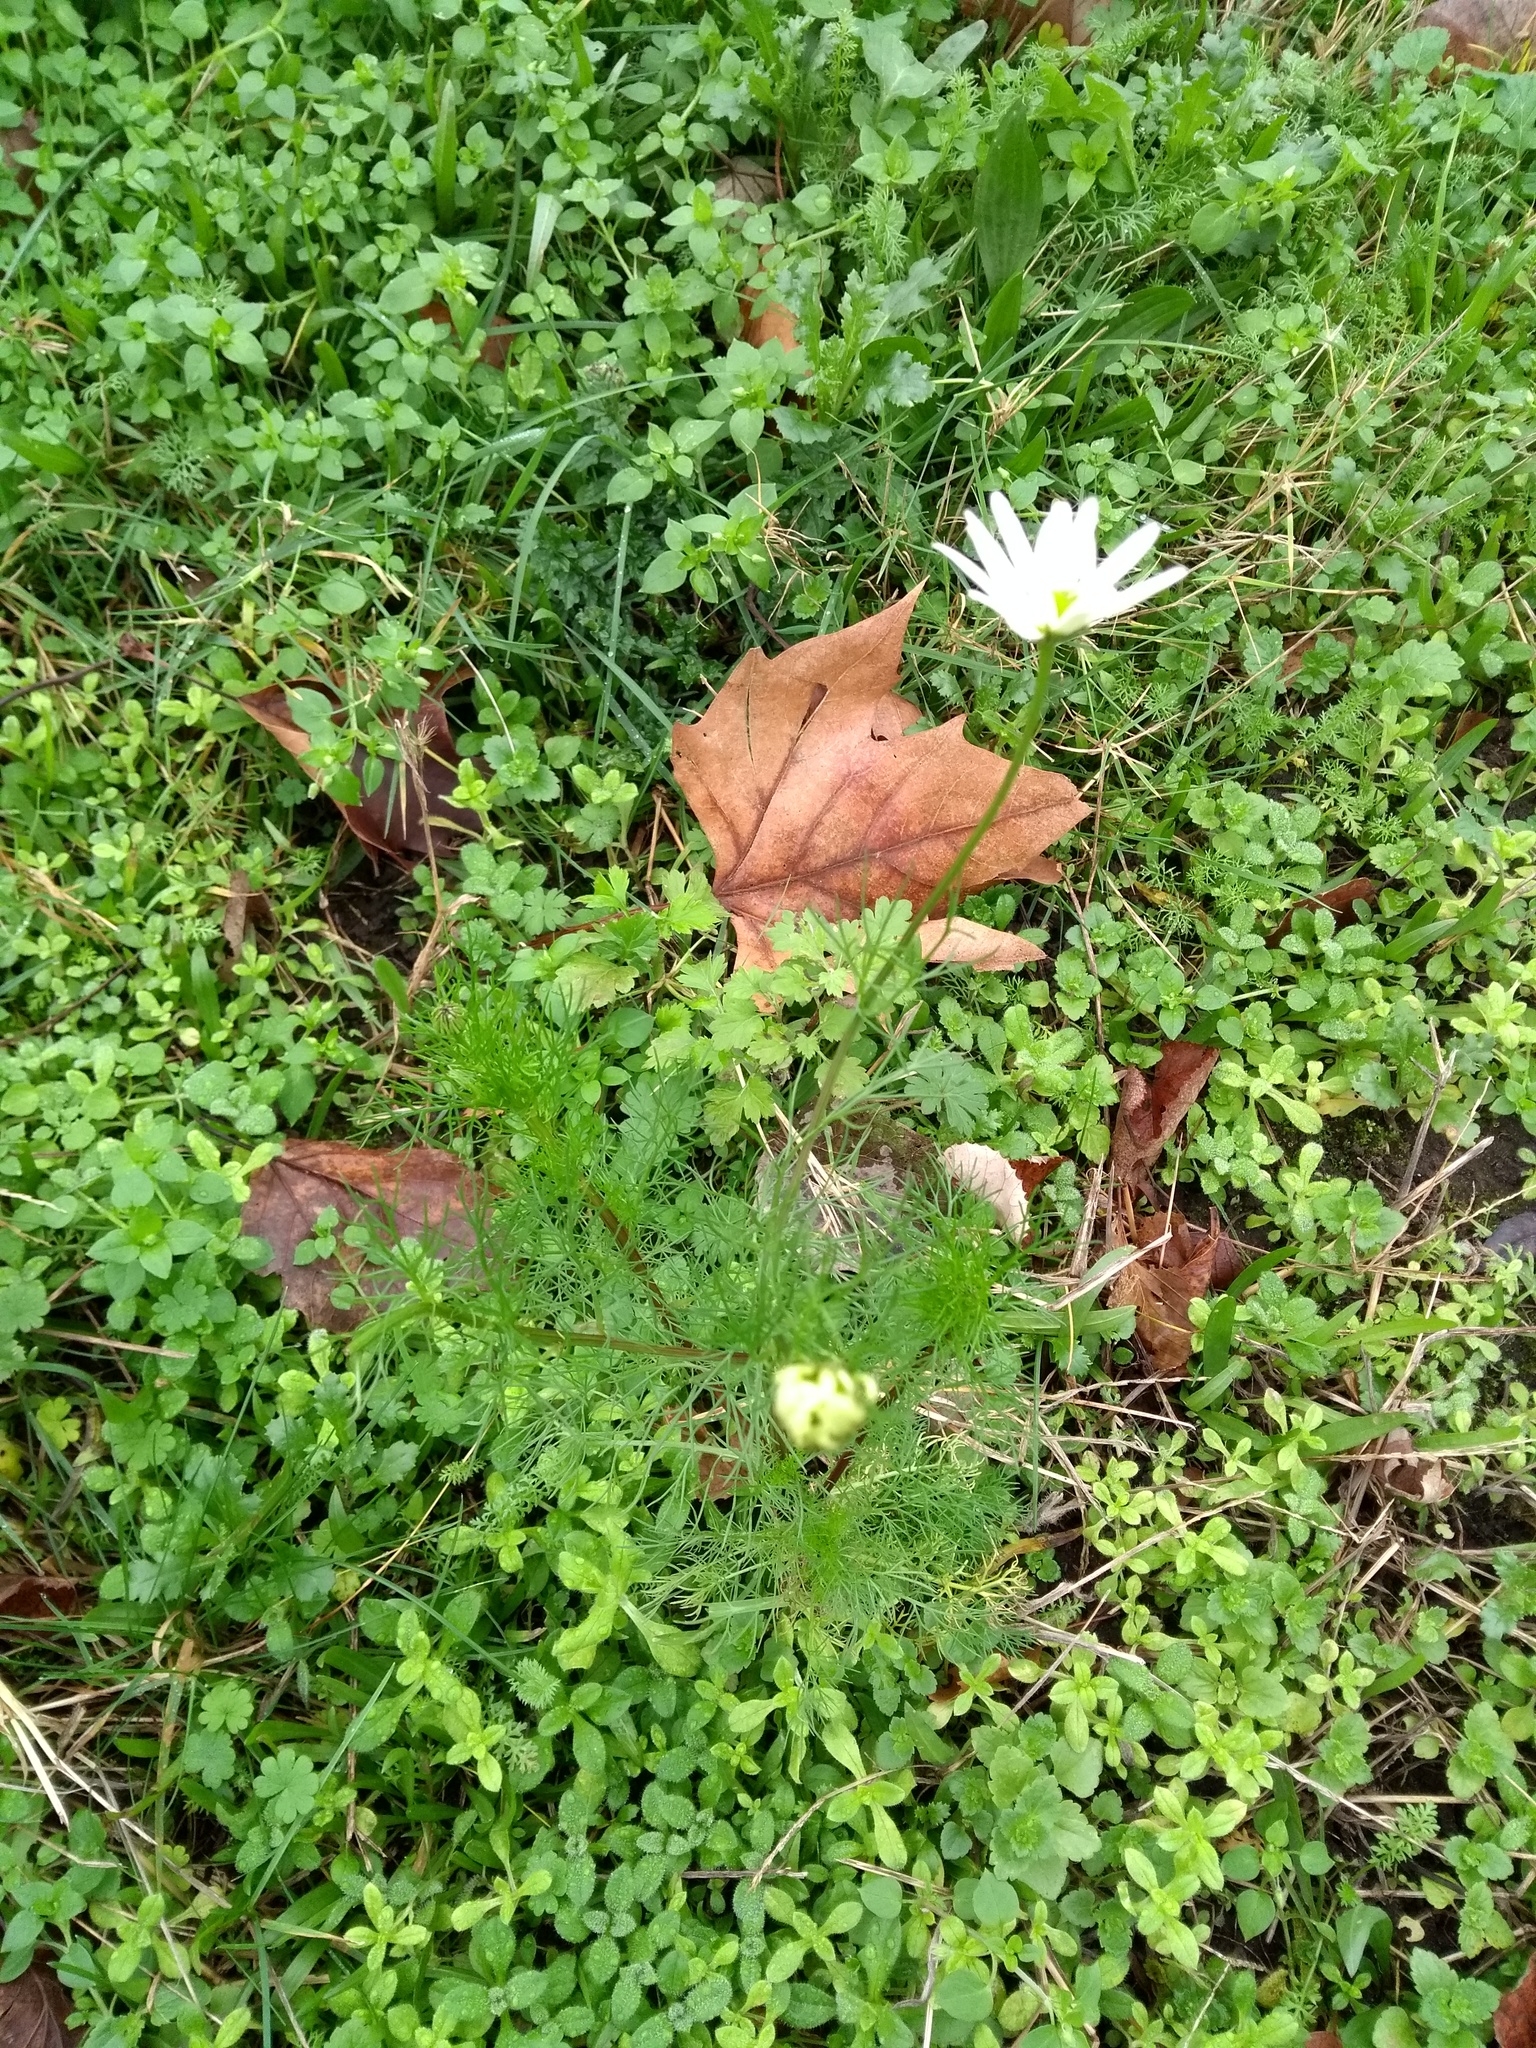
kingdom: Plantae
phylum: Tracheophyta
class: Magnoliopsida
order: Asterales
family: Asteraceae
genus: Tripleurospermum
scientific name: Tripleurospermum inodorum
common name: Scentless mayweed
